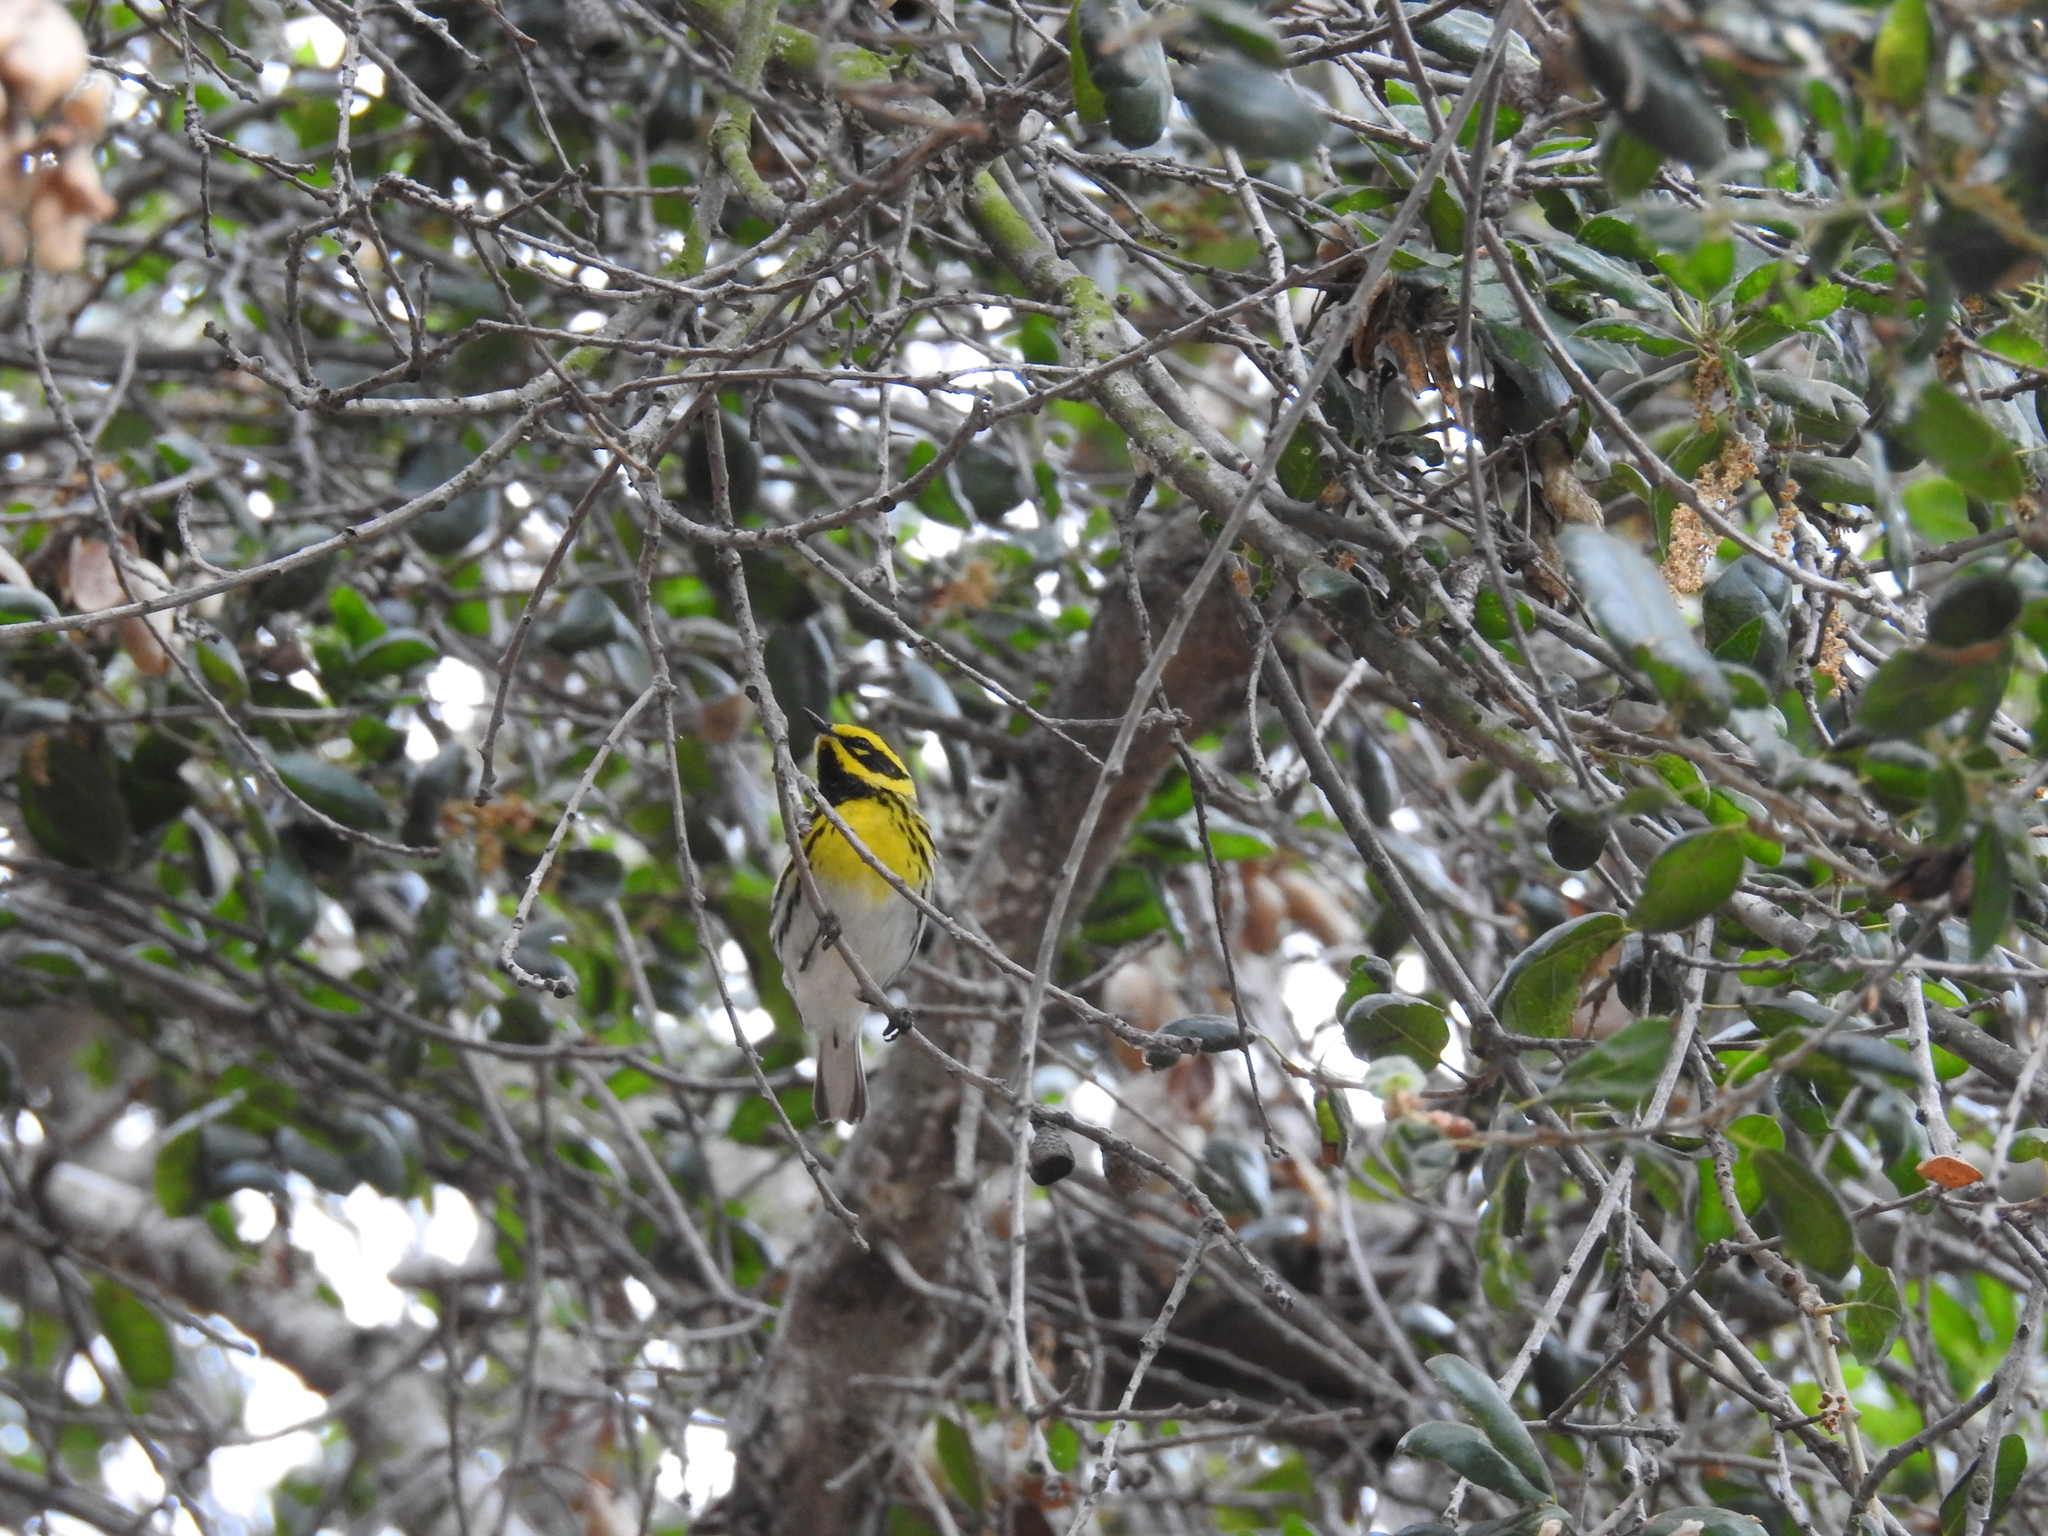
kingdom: Animalia
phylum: Chordata
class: Aves
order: Passeriformes
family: Parulidae
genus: Setophaga
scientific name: Setophaga townsendi
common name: Townsend's warbler
